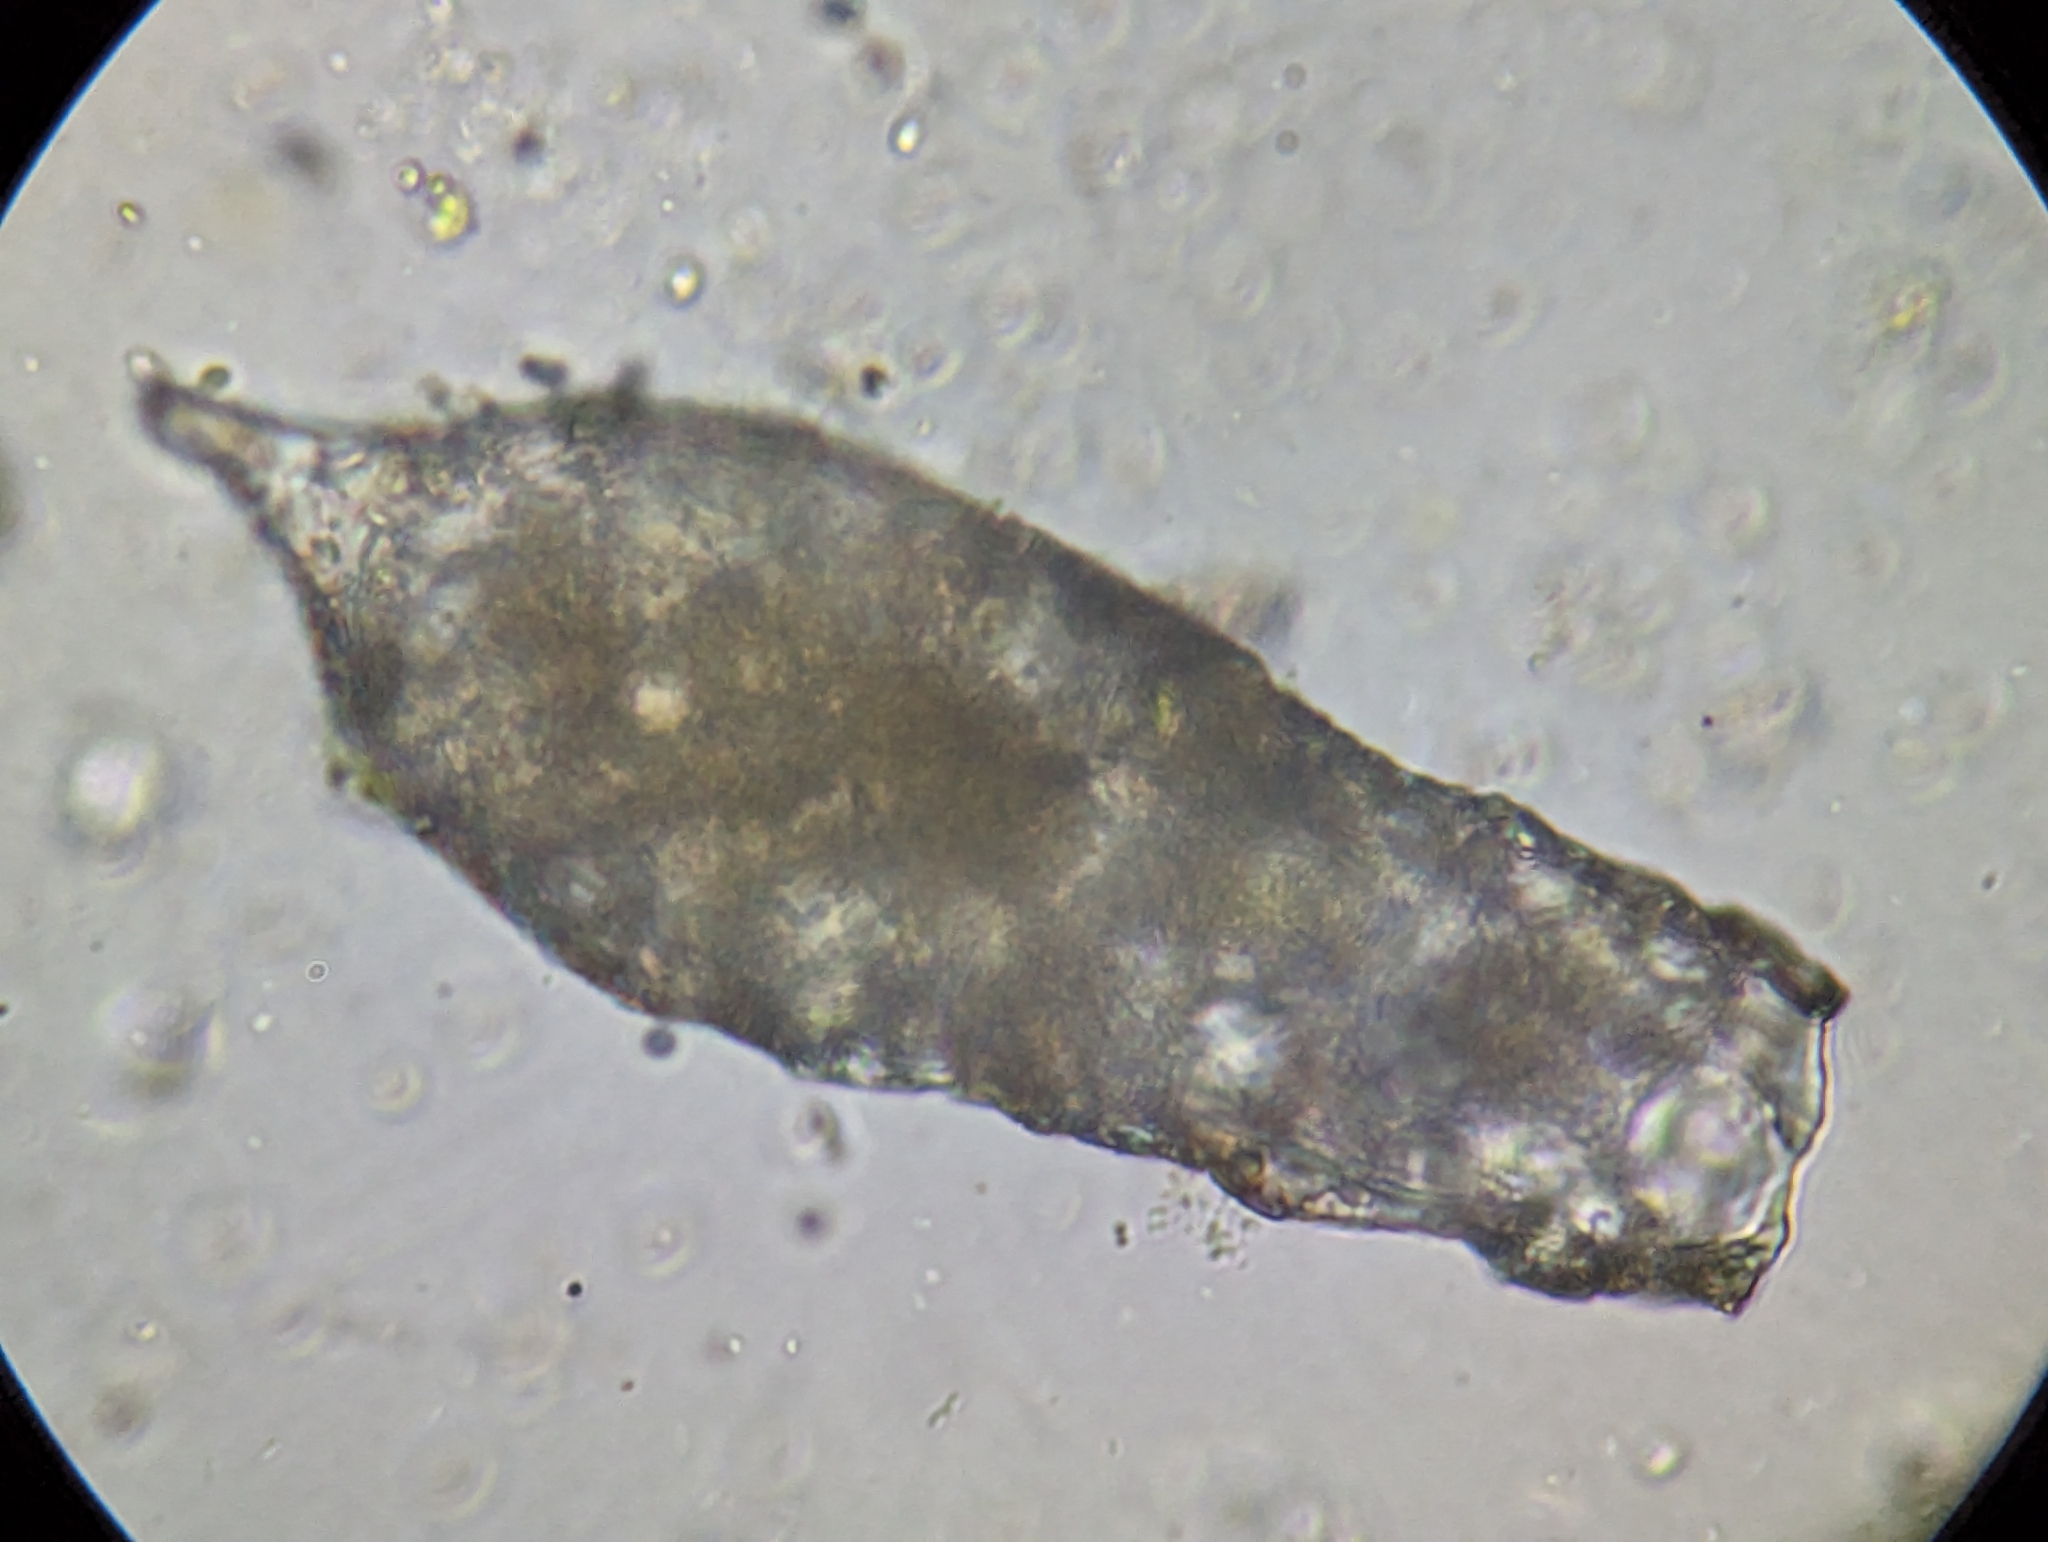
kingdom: Protozoa
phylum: Amoebozoa
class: Lobosa
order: Arcellinida
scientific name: Arcellinida
